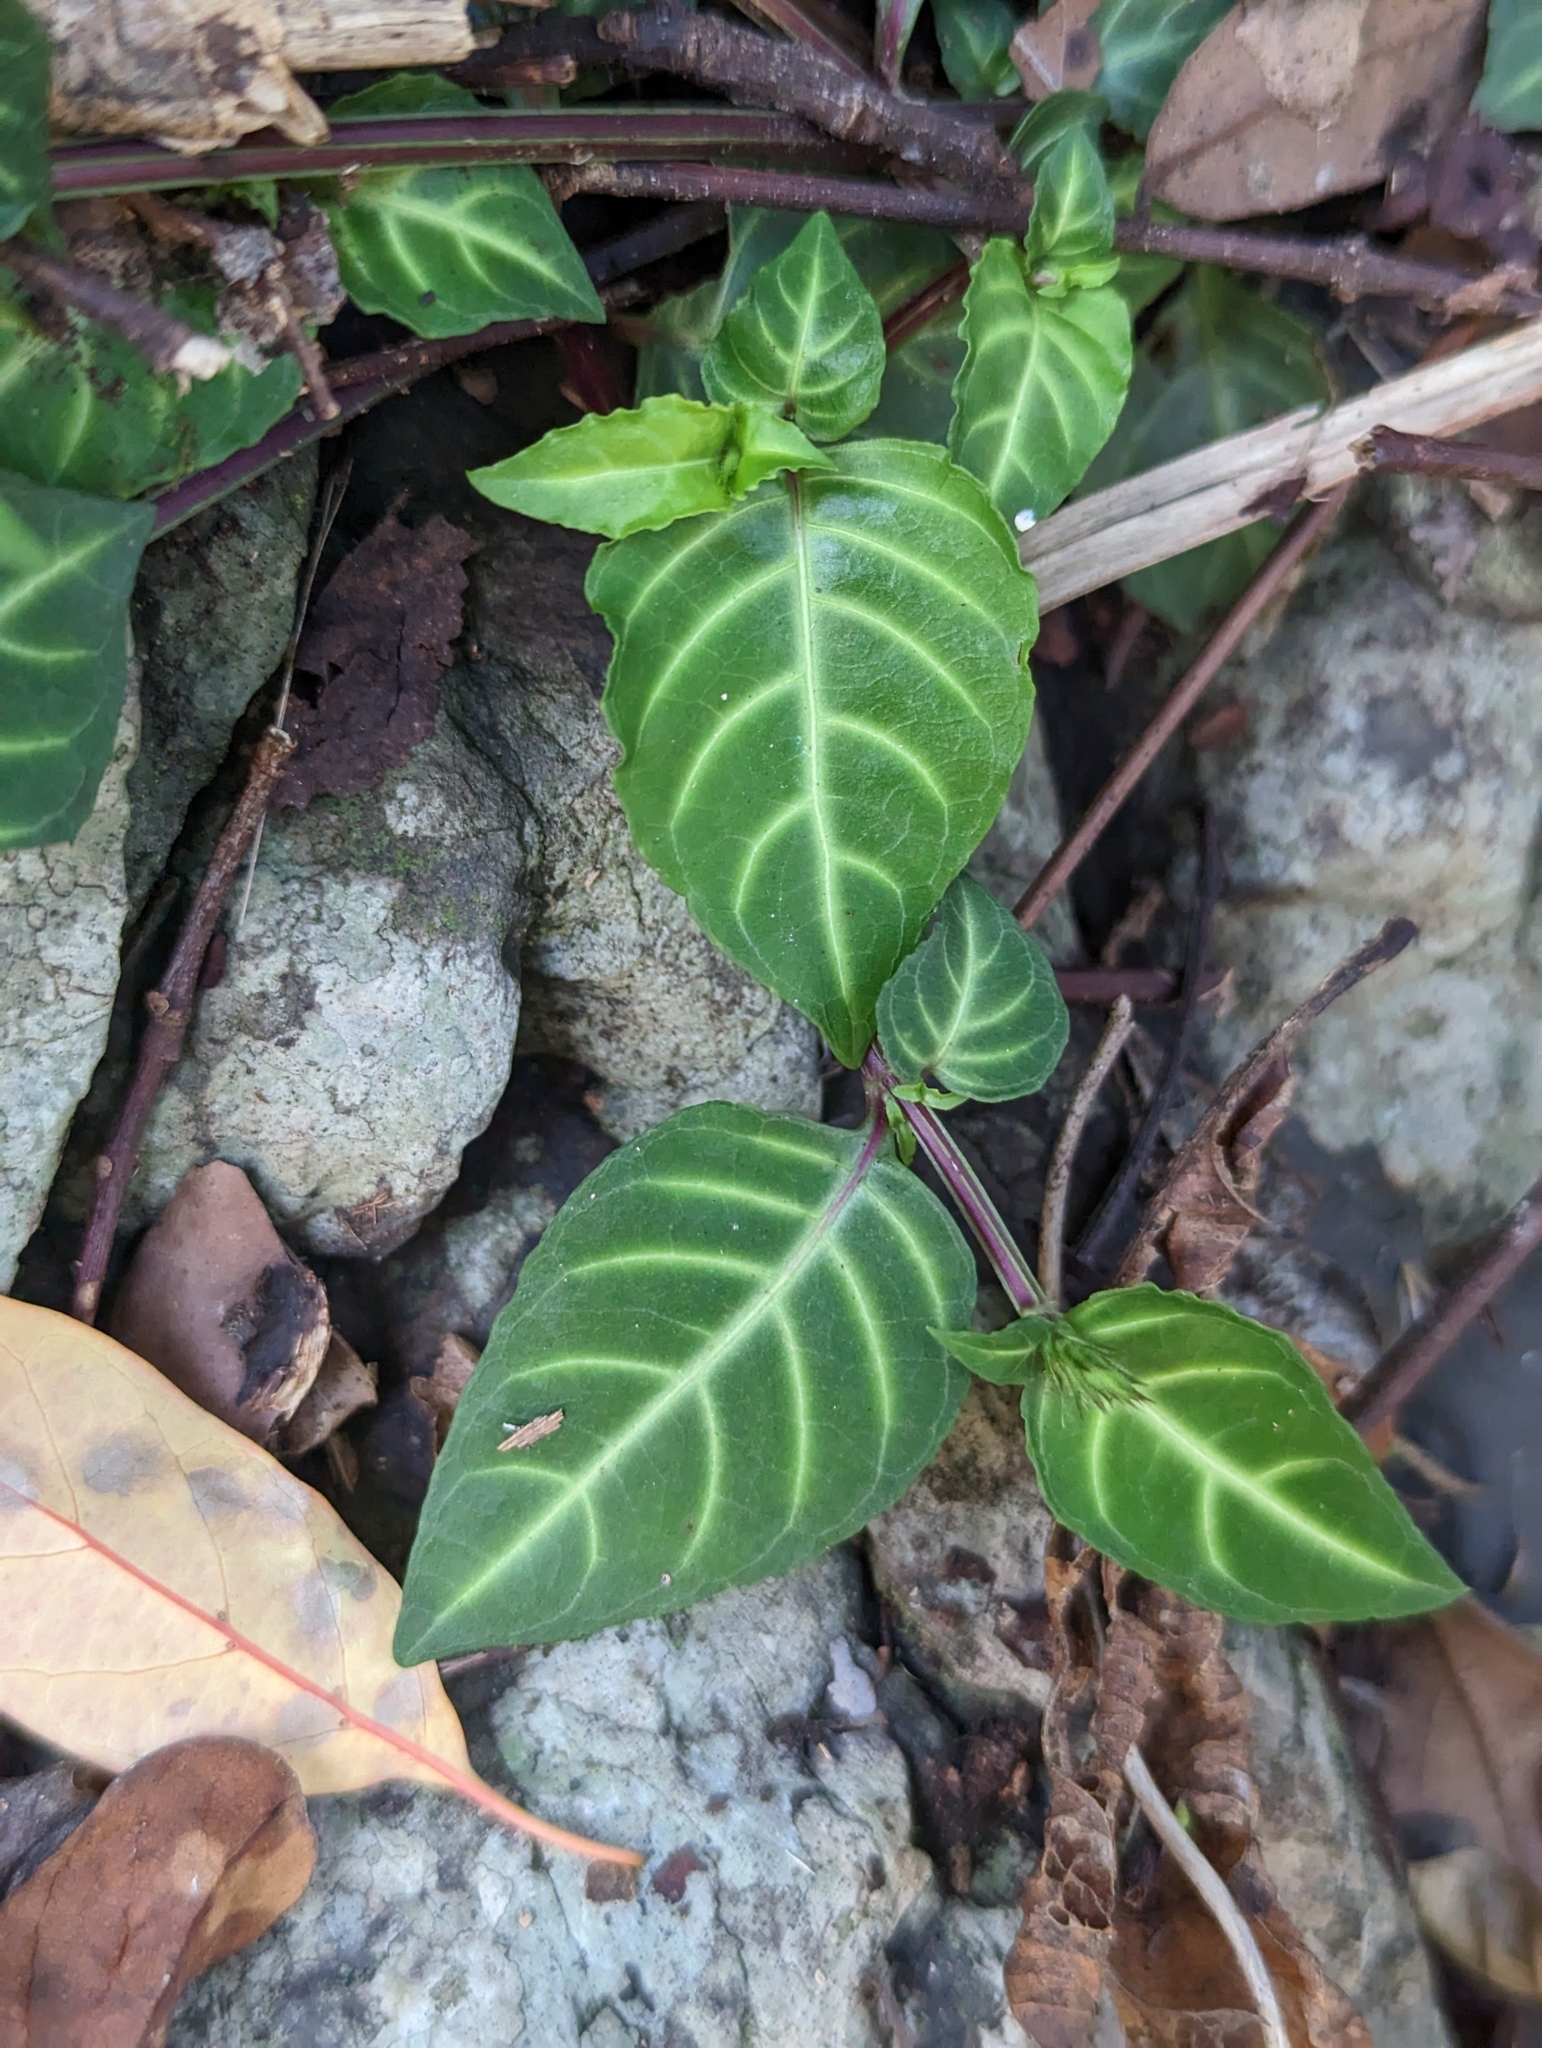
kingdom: Plantae
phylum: Tracheophyta
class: Magnoliopsida
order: Lamiales
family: Acanthaceae
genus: Lepidagathis
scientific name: Lepidagathis inaequalis
